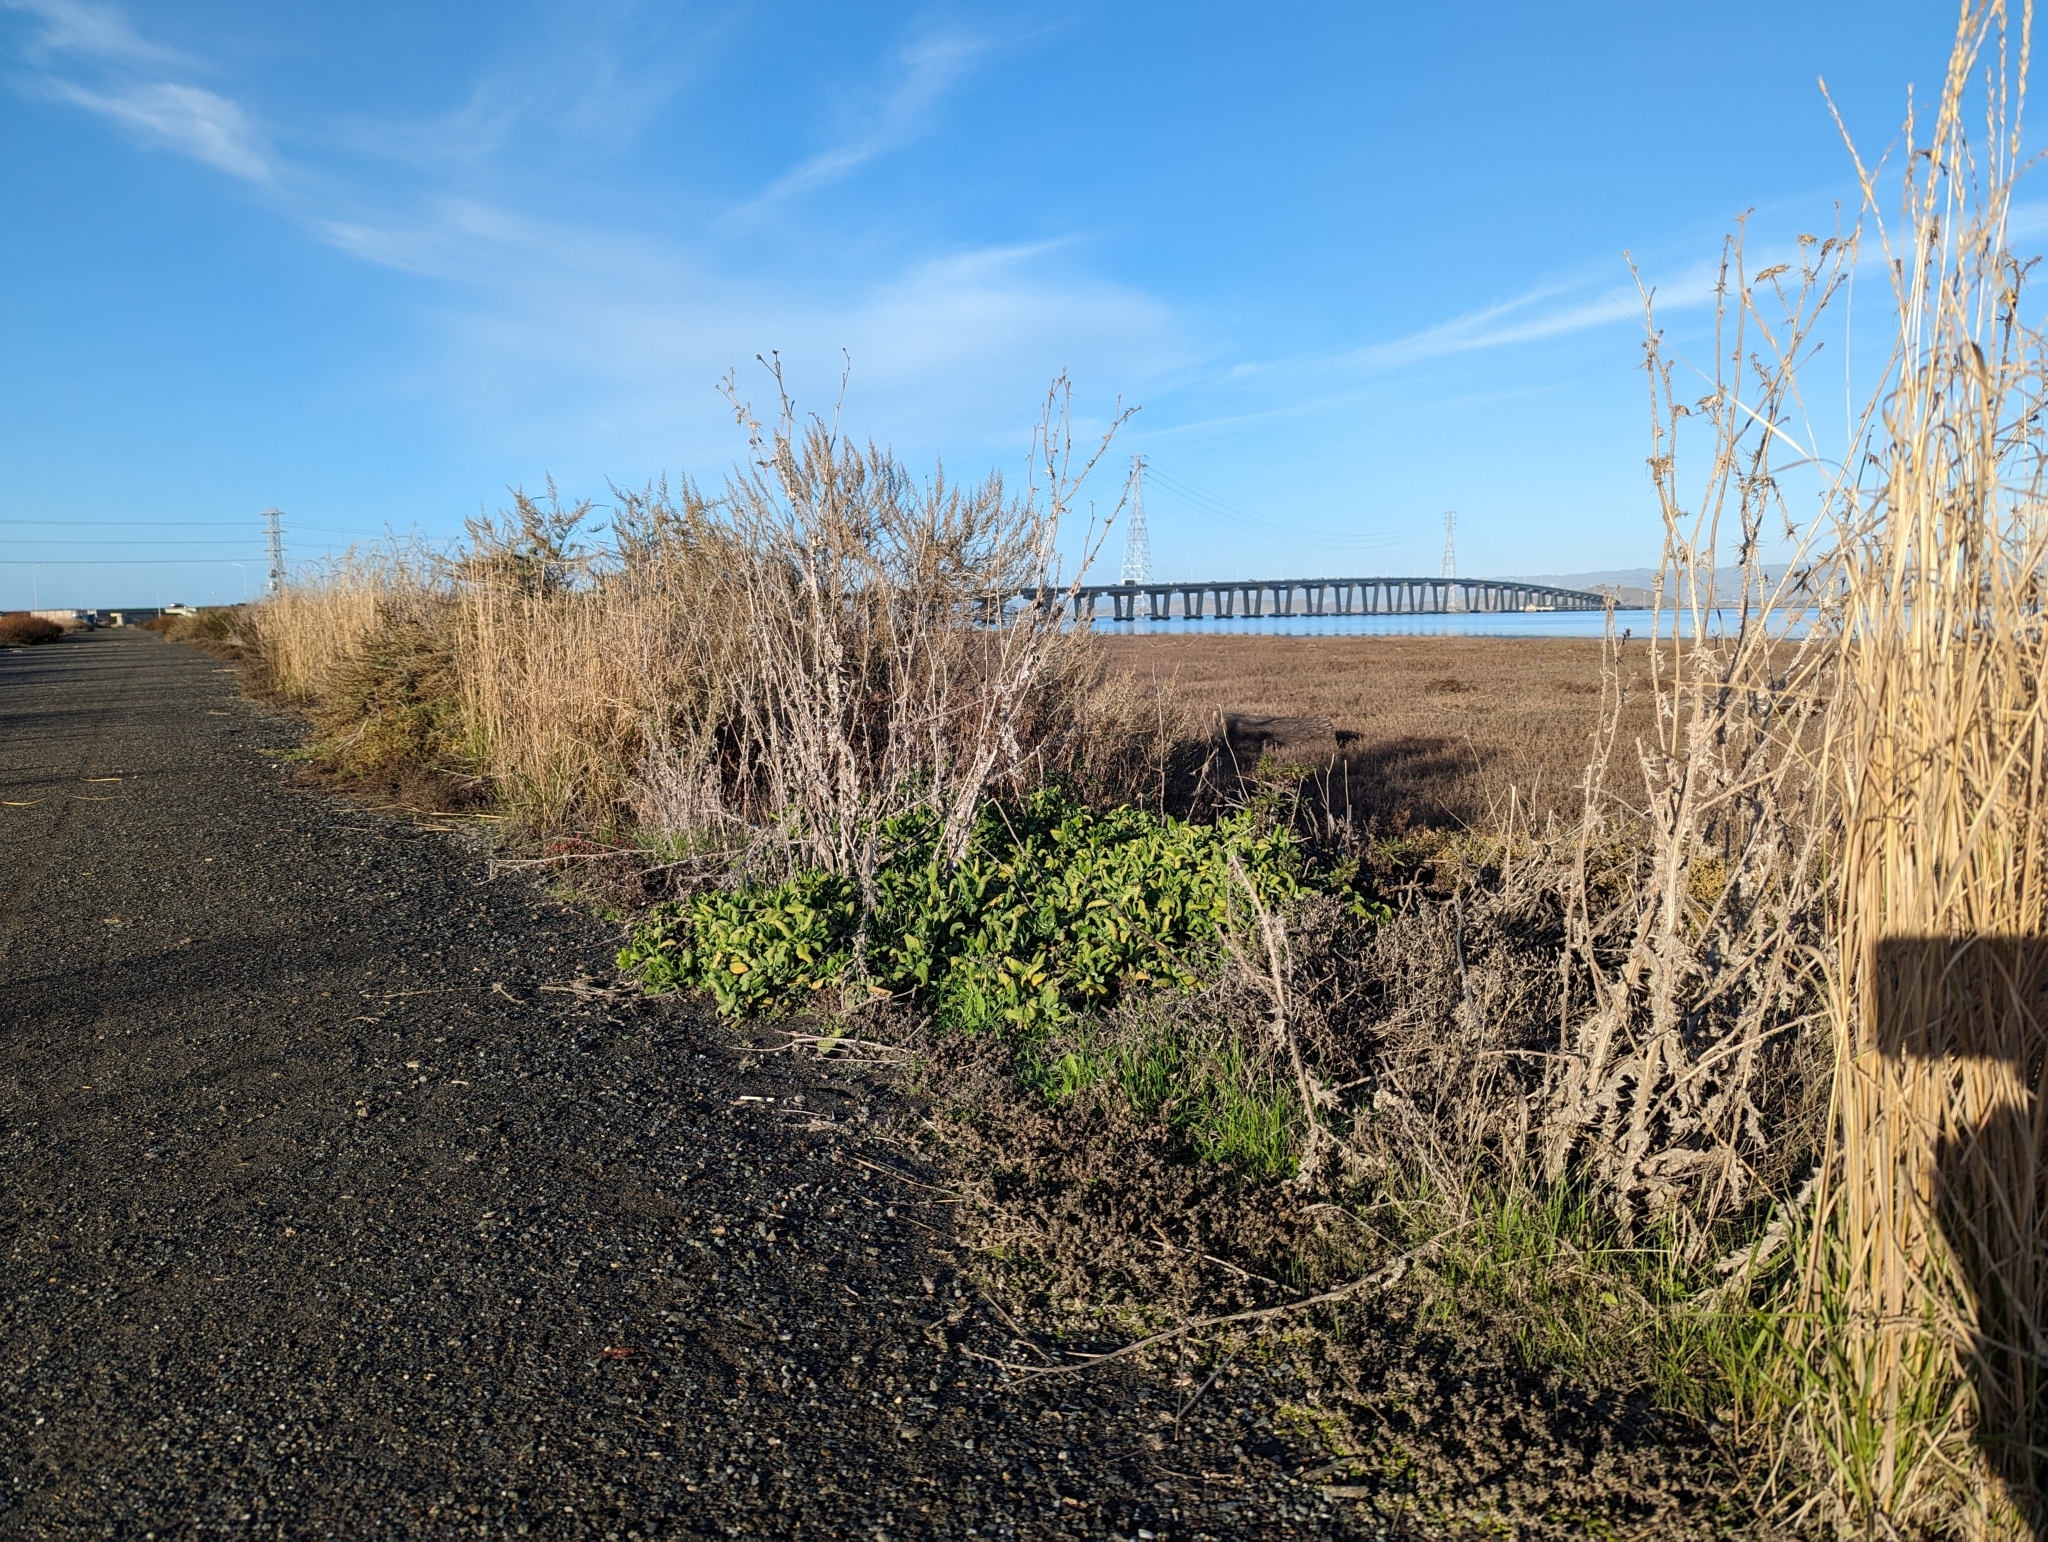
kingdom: Plantae
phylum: Tracheophyta
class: Magnoliopsida
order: Caryophyllales
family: Aizoaceae
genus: Tetragonia
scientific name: Tetragonia tetragonoides
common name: New zealand-spinach
